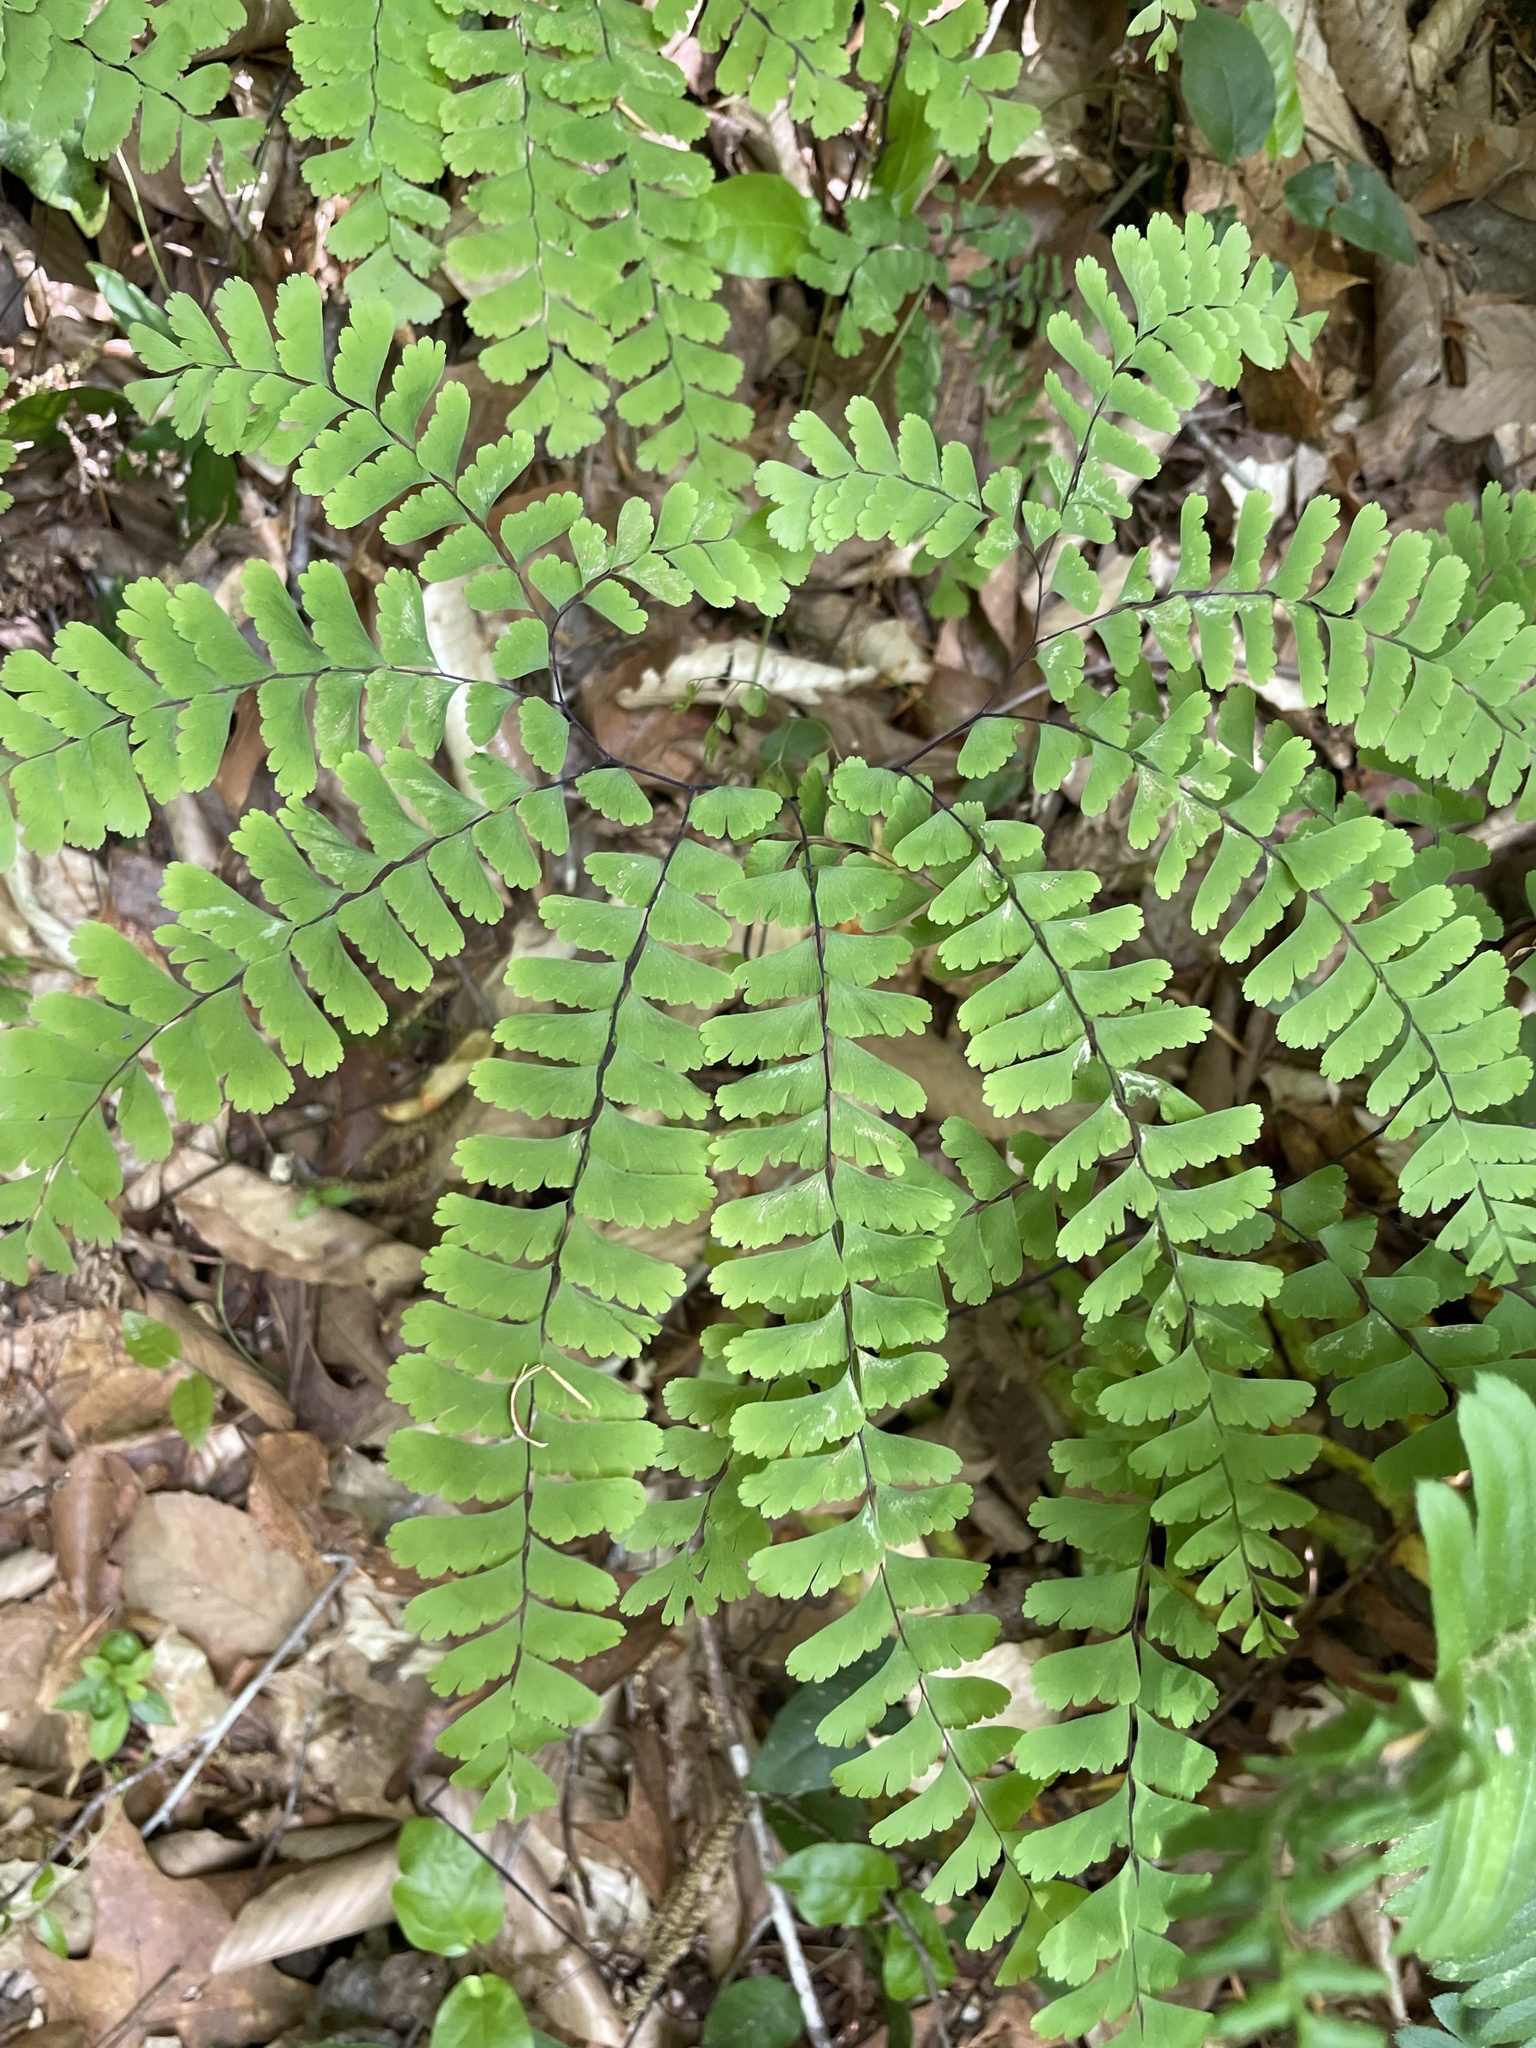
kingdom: Plantae
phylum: Tracheophyta
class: Polypodiopsida
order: Polypodiales
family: Pteridaceae
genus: Adiantum
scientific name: Adiantum pedatum
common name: Five-finger fern
